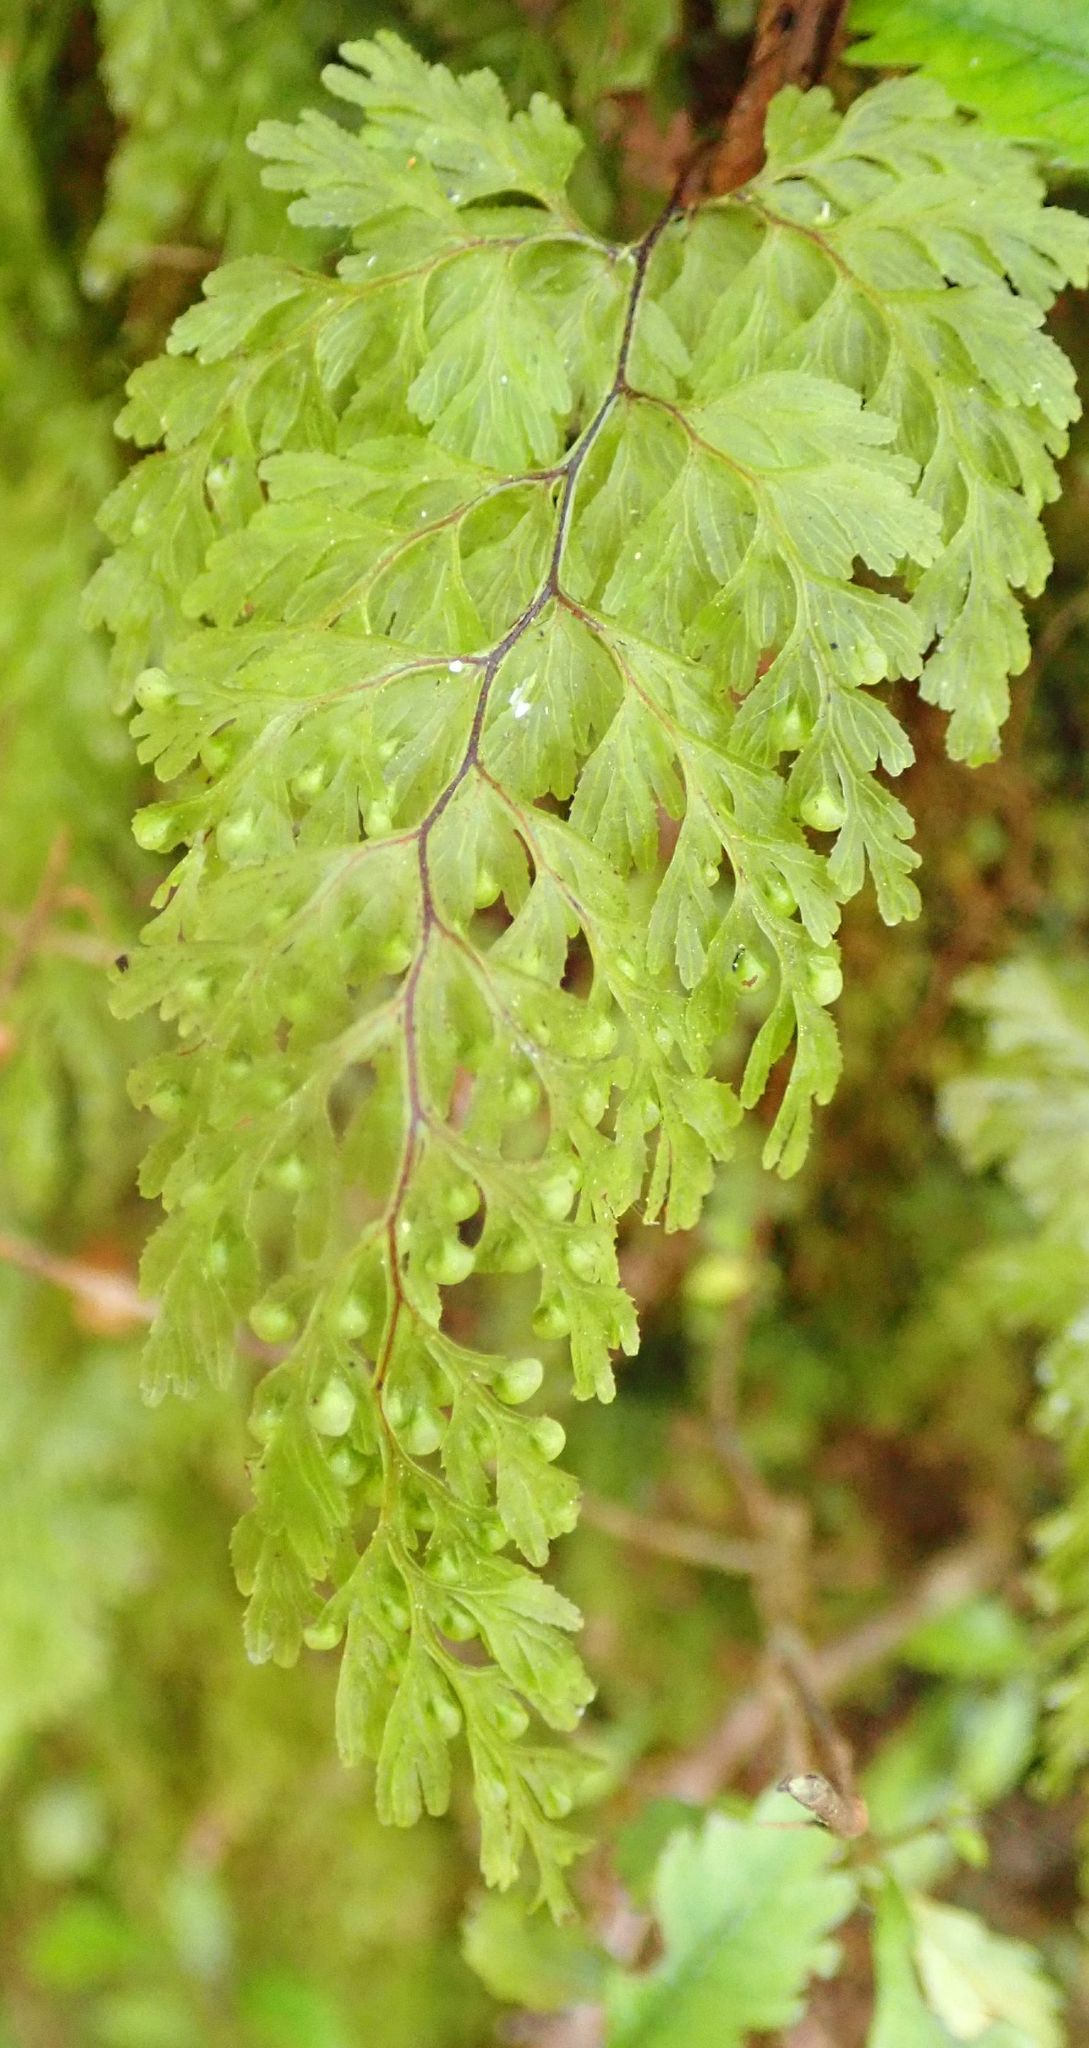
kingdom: Plantae
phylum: Tracheophyta
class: Polypodiopsida
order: Hymenophyllales
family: Hymenophyllaceae
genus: Hymenophyllum
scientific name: Hymenophyllum bivalve
